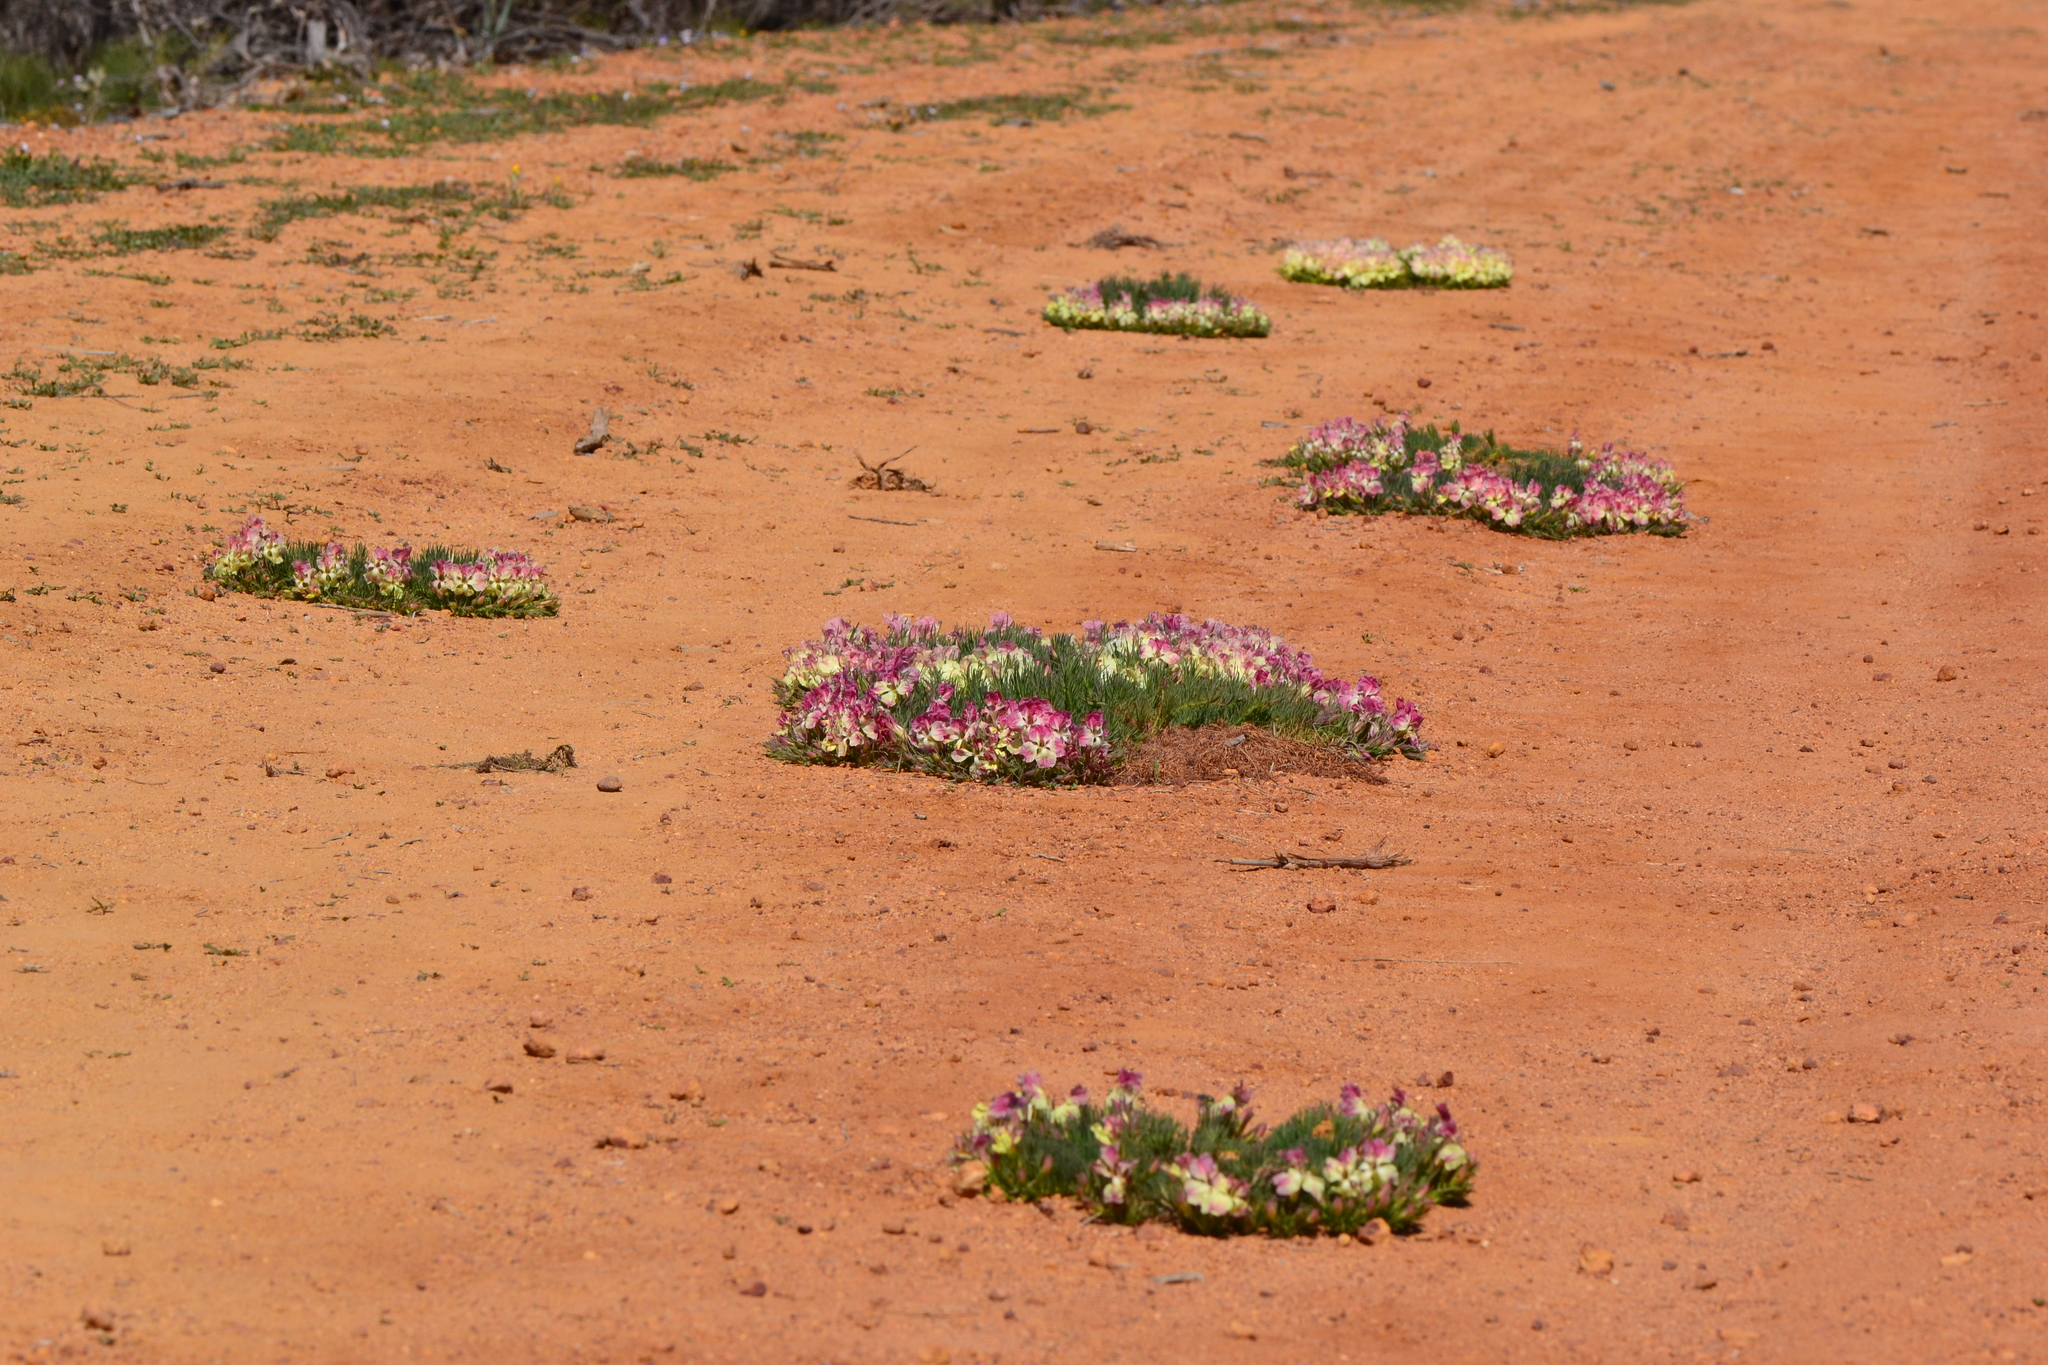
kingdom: Plantae
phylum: Tracheophyta
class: Magnoliopsida
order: Asterales
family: Goodeniaceae
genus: Lechenaultia
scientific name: Lechenaultia macrantha
